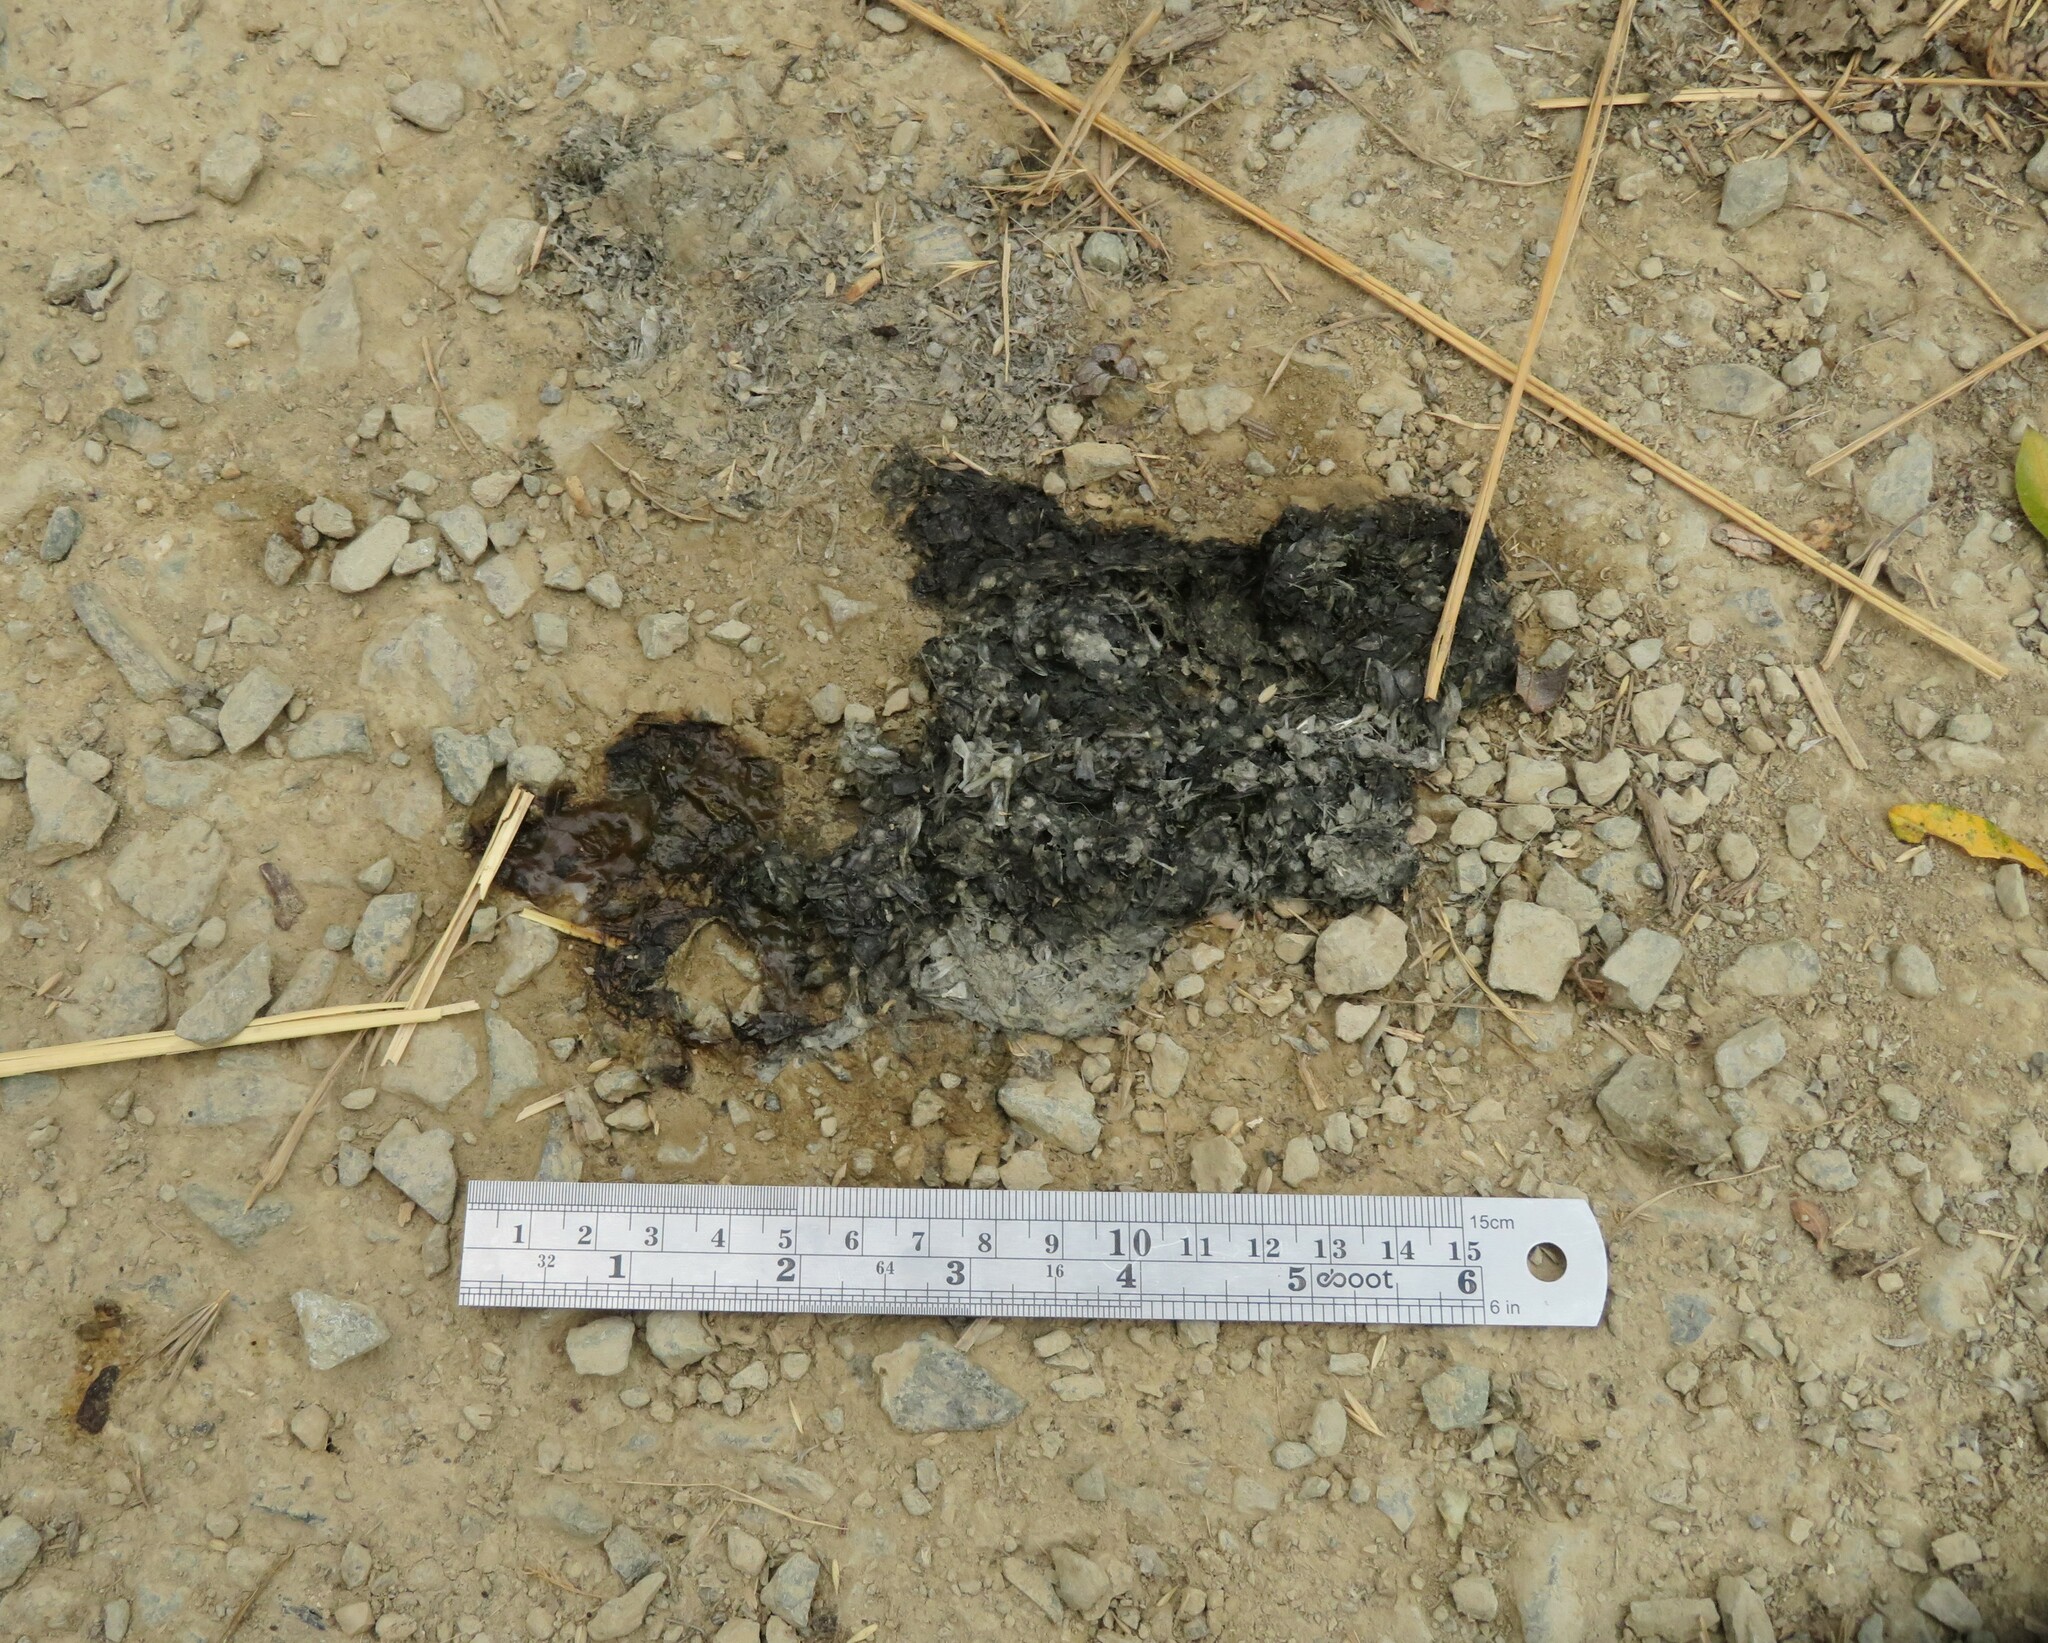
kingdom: Animalia
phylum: Chordata
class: Mammalia
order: Carnivora
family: Mustelidae
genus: Lontra
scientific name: Lontra canadensis
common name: North american river otter
